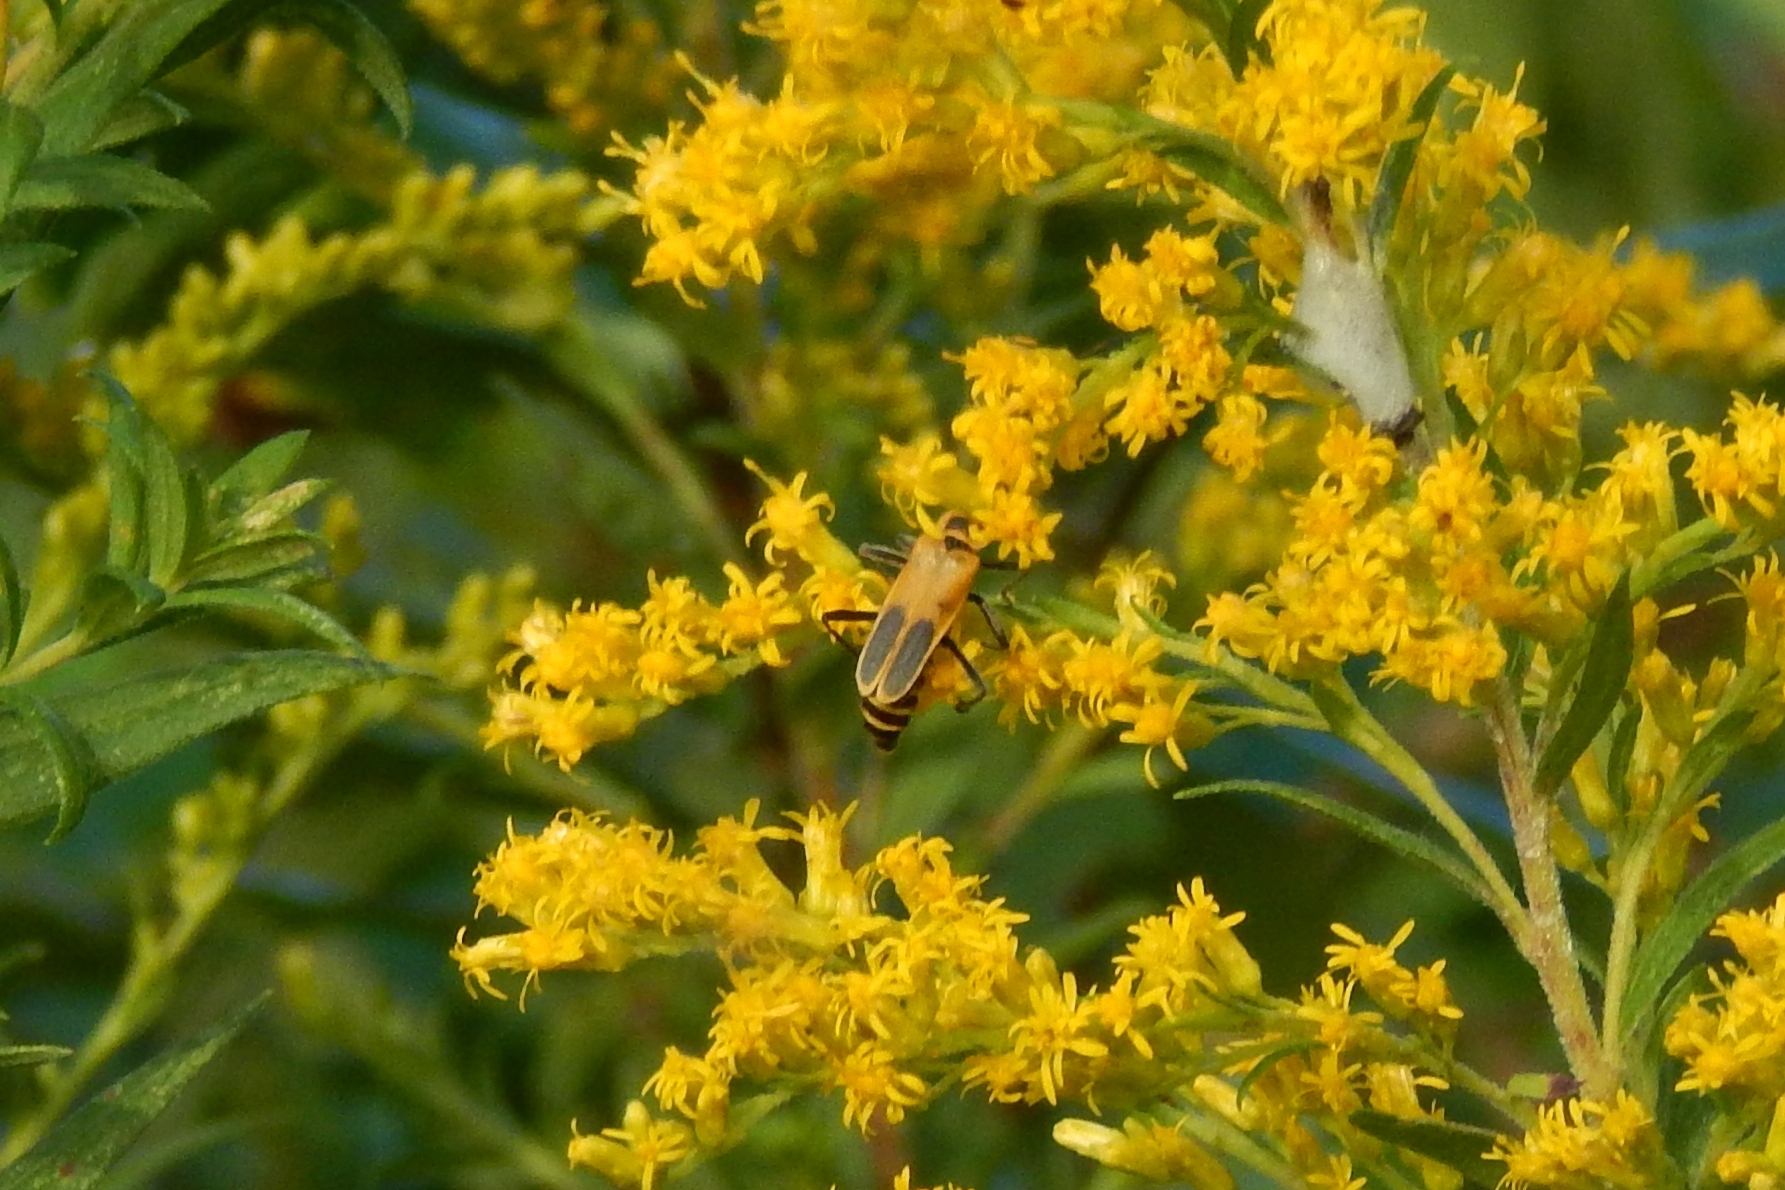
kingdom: Animalia
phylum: Arthropoda
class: Insecta
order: Coleoptera
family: Cantharidae
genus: Chauliognathus
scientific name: Chauliognathus pensylvanicus
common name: Goldenrod soldier beetle
